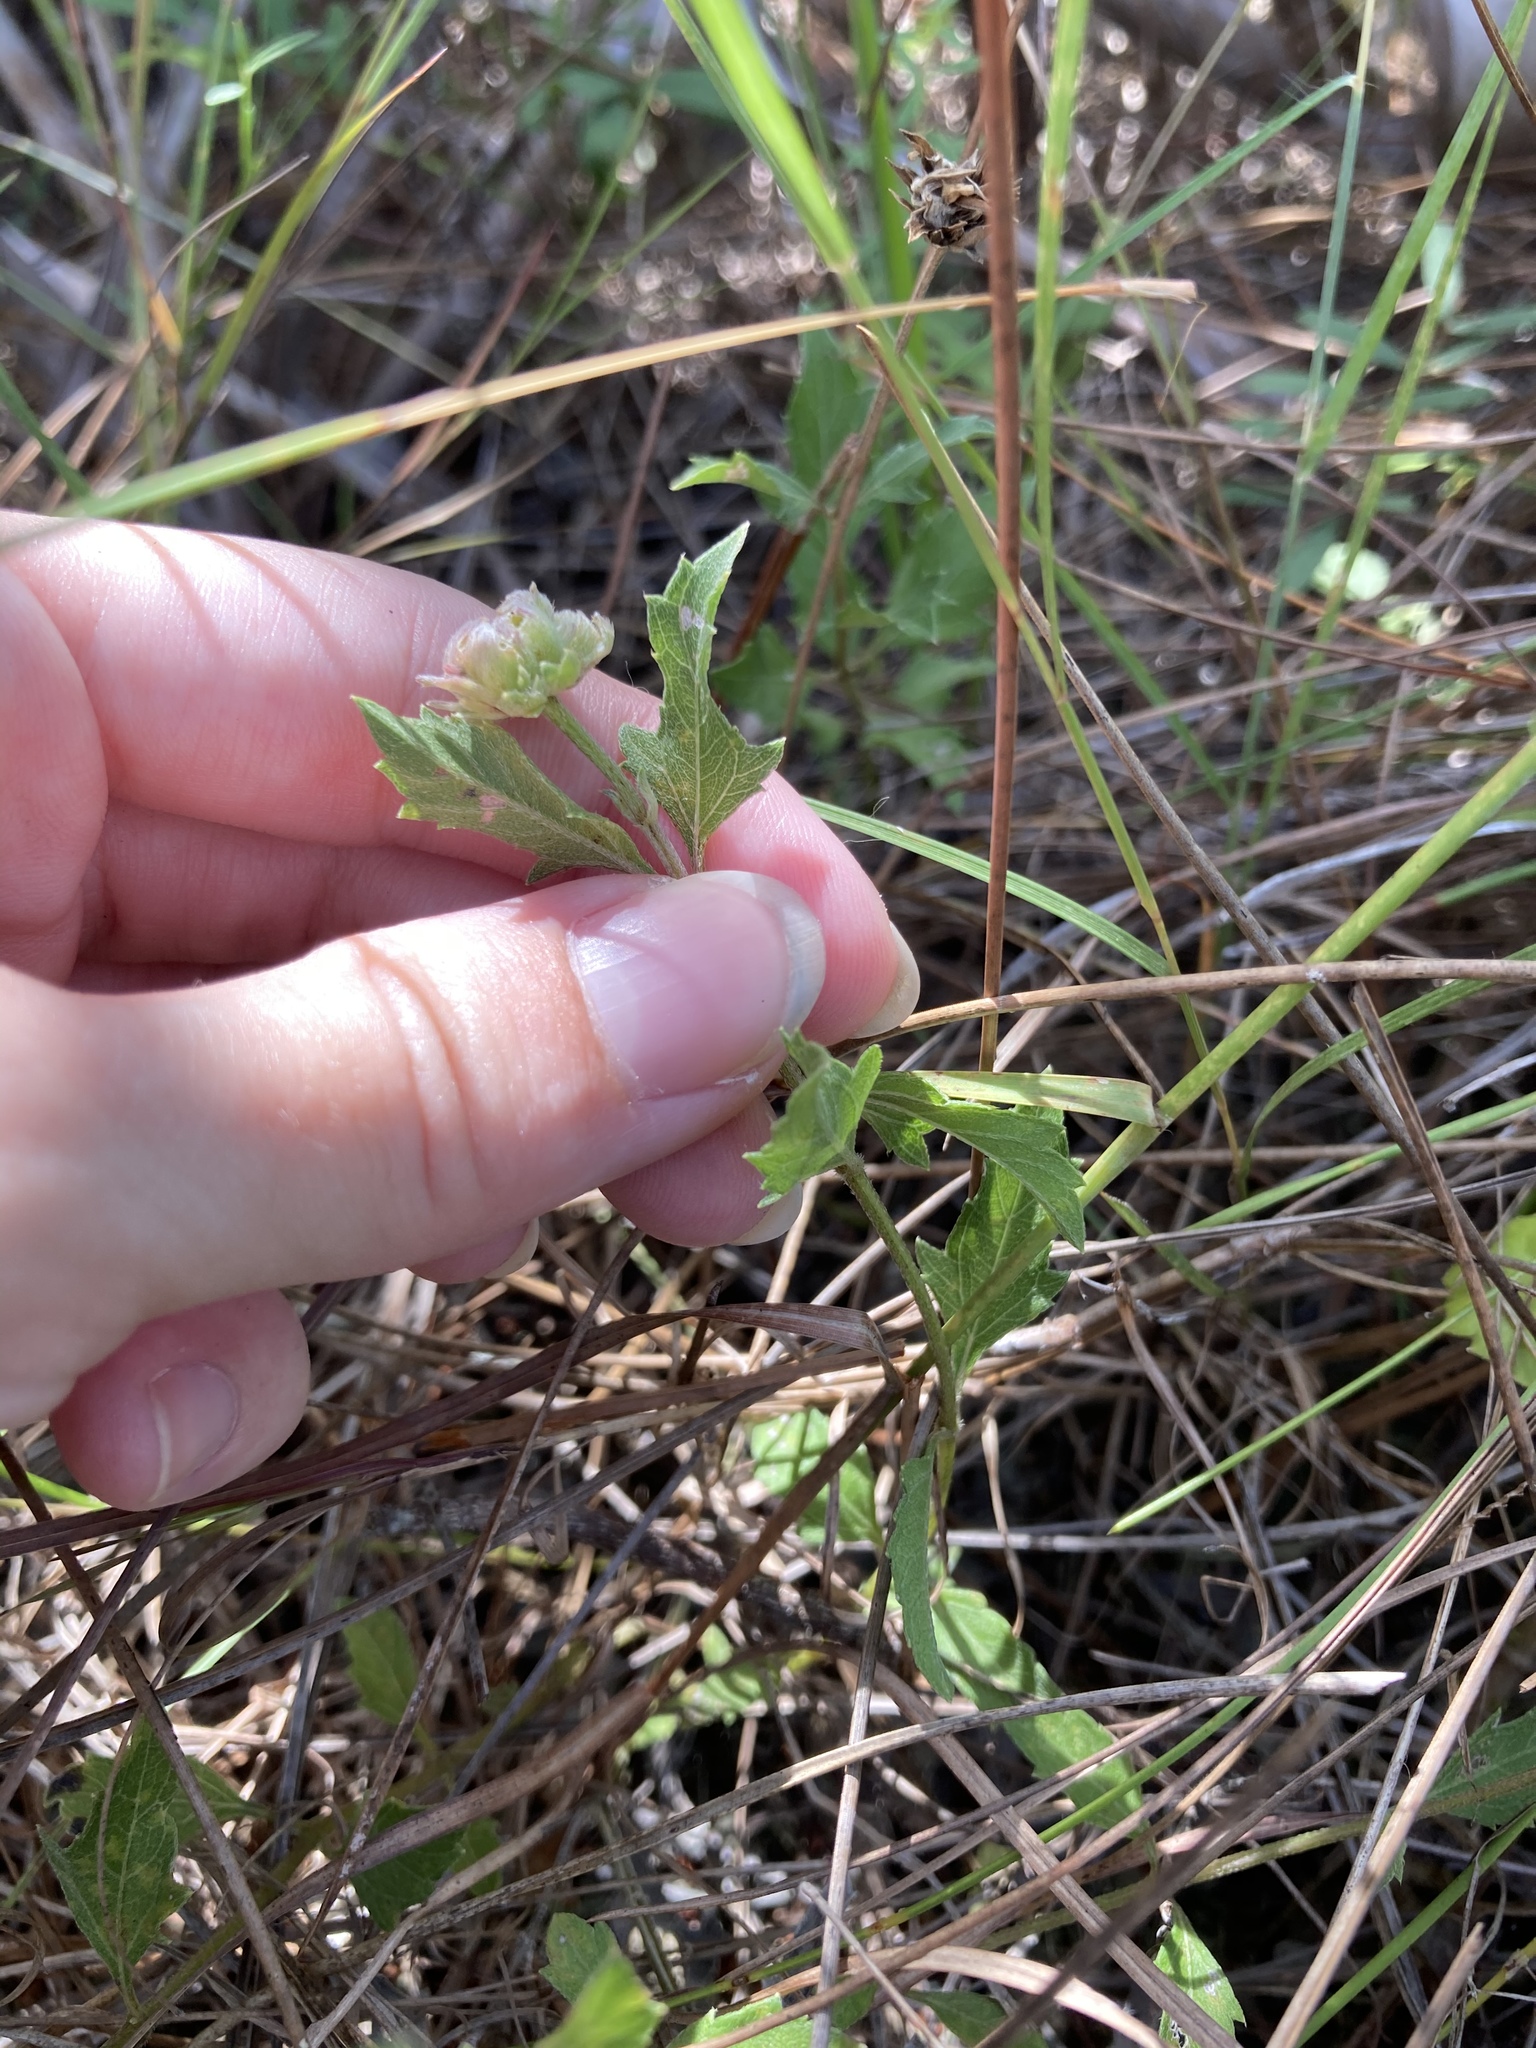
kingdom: Plantae
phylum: Tracheophyta
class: Magnoliopsida
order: Asterales
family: Asteraceae
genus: Melanthera
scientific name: Melanthera parvifolia
